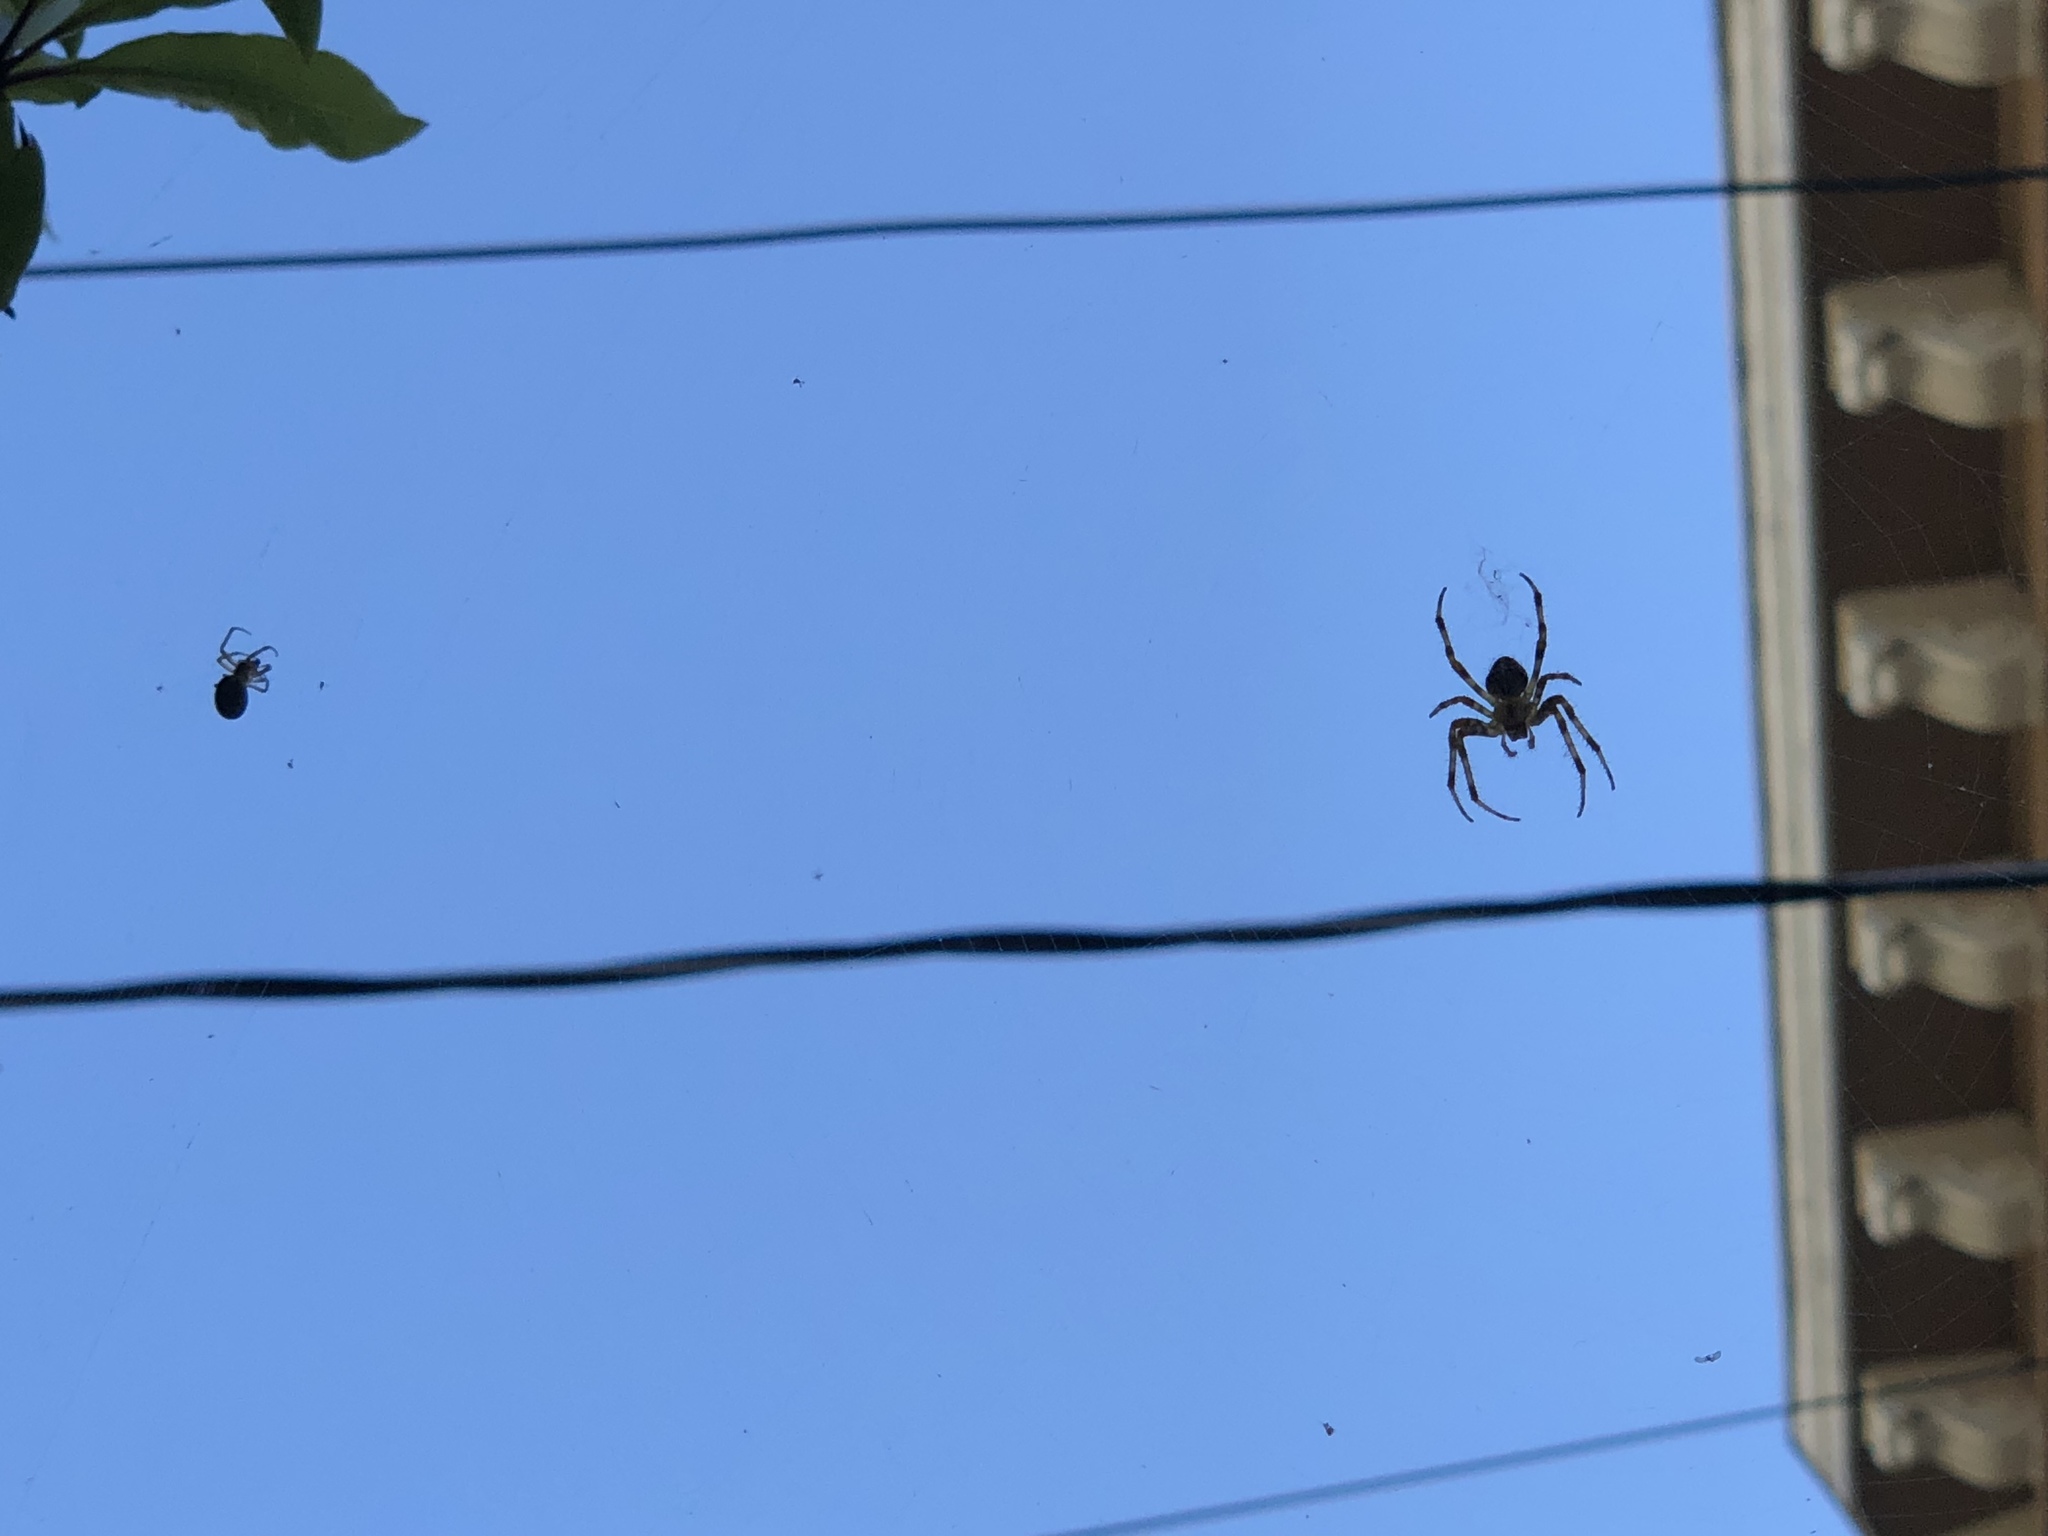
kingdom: Animalia
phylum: Arthropoda
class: Arachnida
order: Araneae
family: Araneidae
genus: Araneus
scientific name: Araneus diadematus
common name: Cross orbweaver
